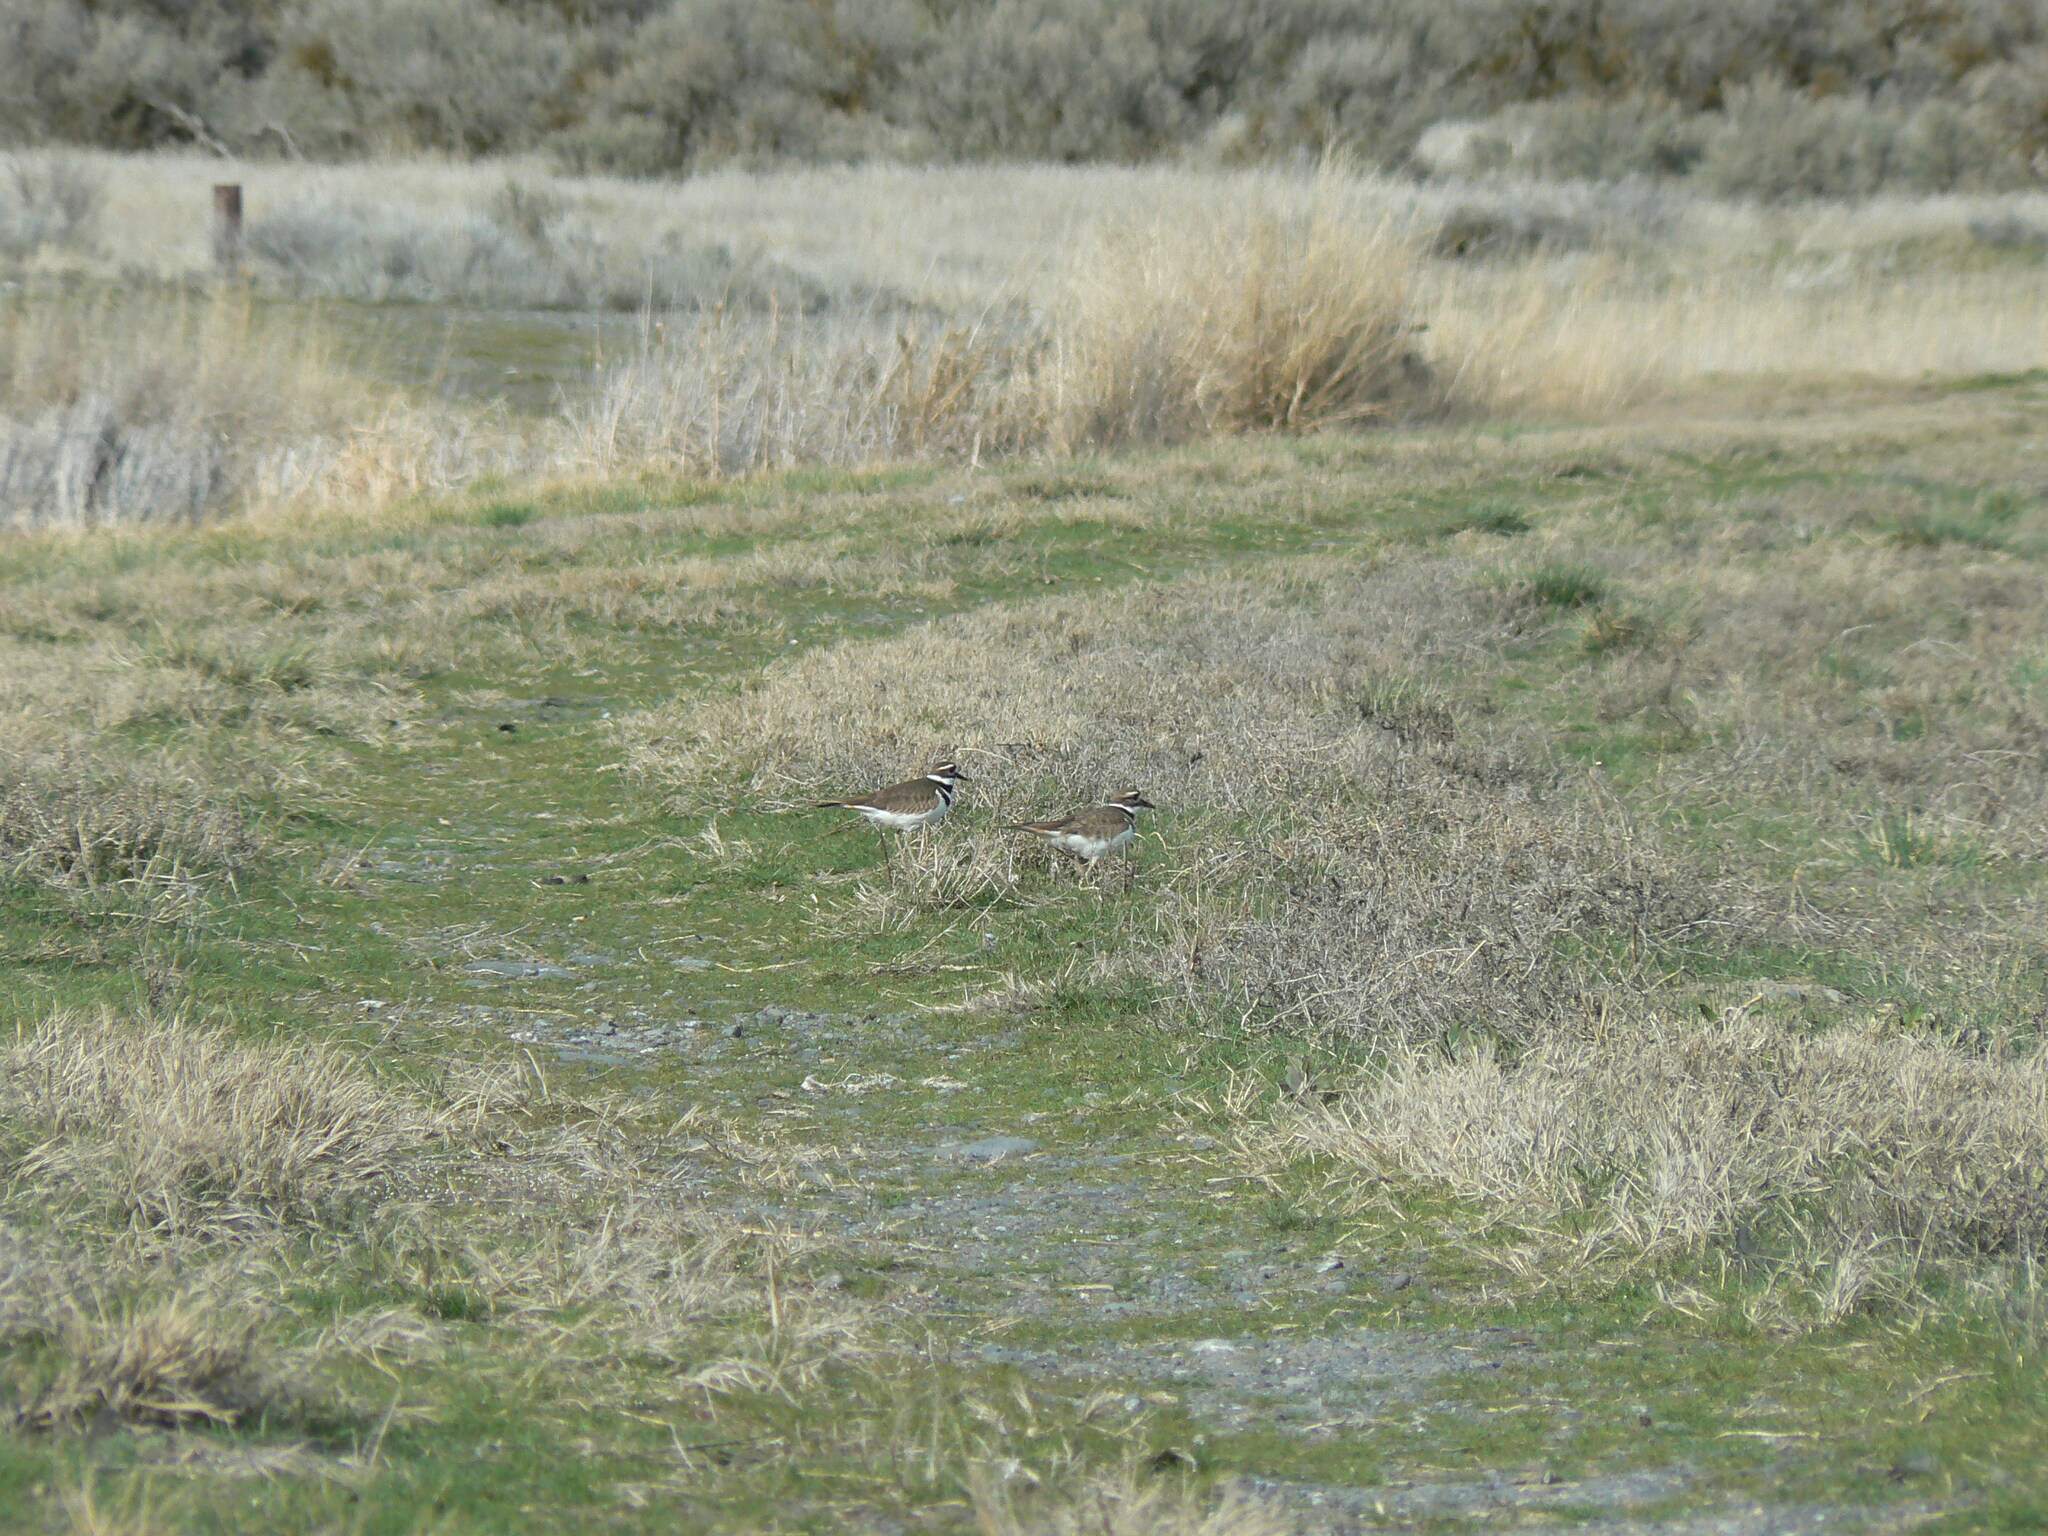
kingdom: Animalia
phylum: Chordata
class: Aves
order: Charadriiformes
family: Charadriidae
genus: Charadrius
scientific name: Charadrius vociferus
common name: Killdeer
